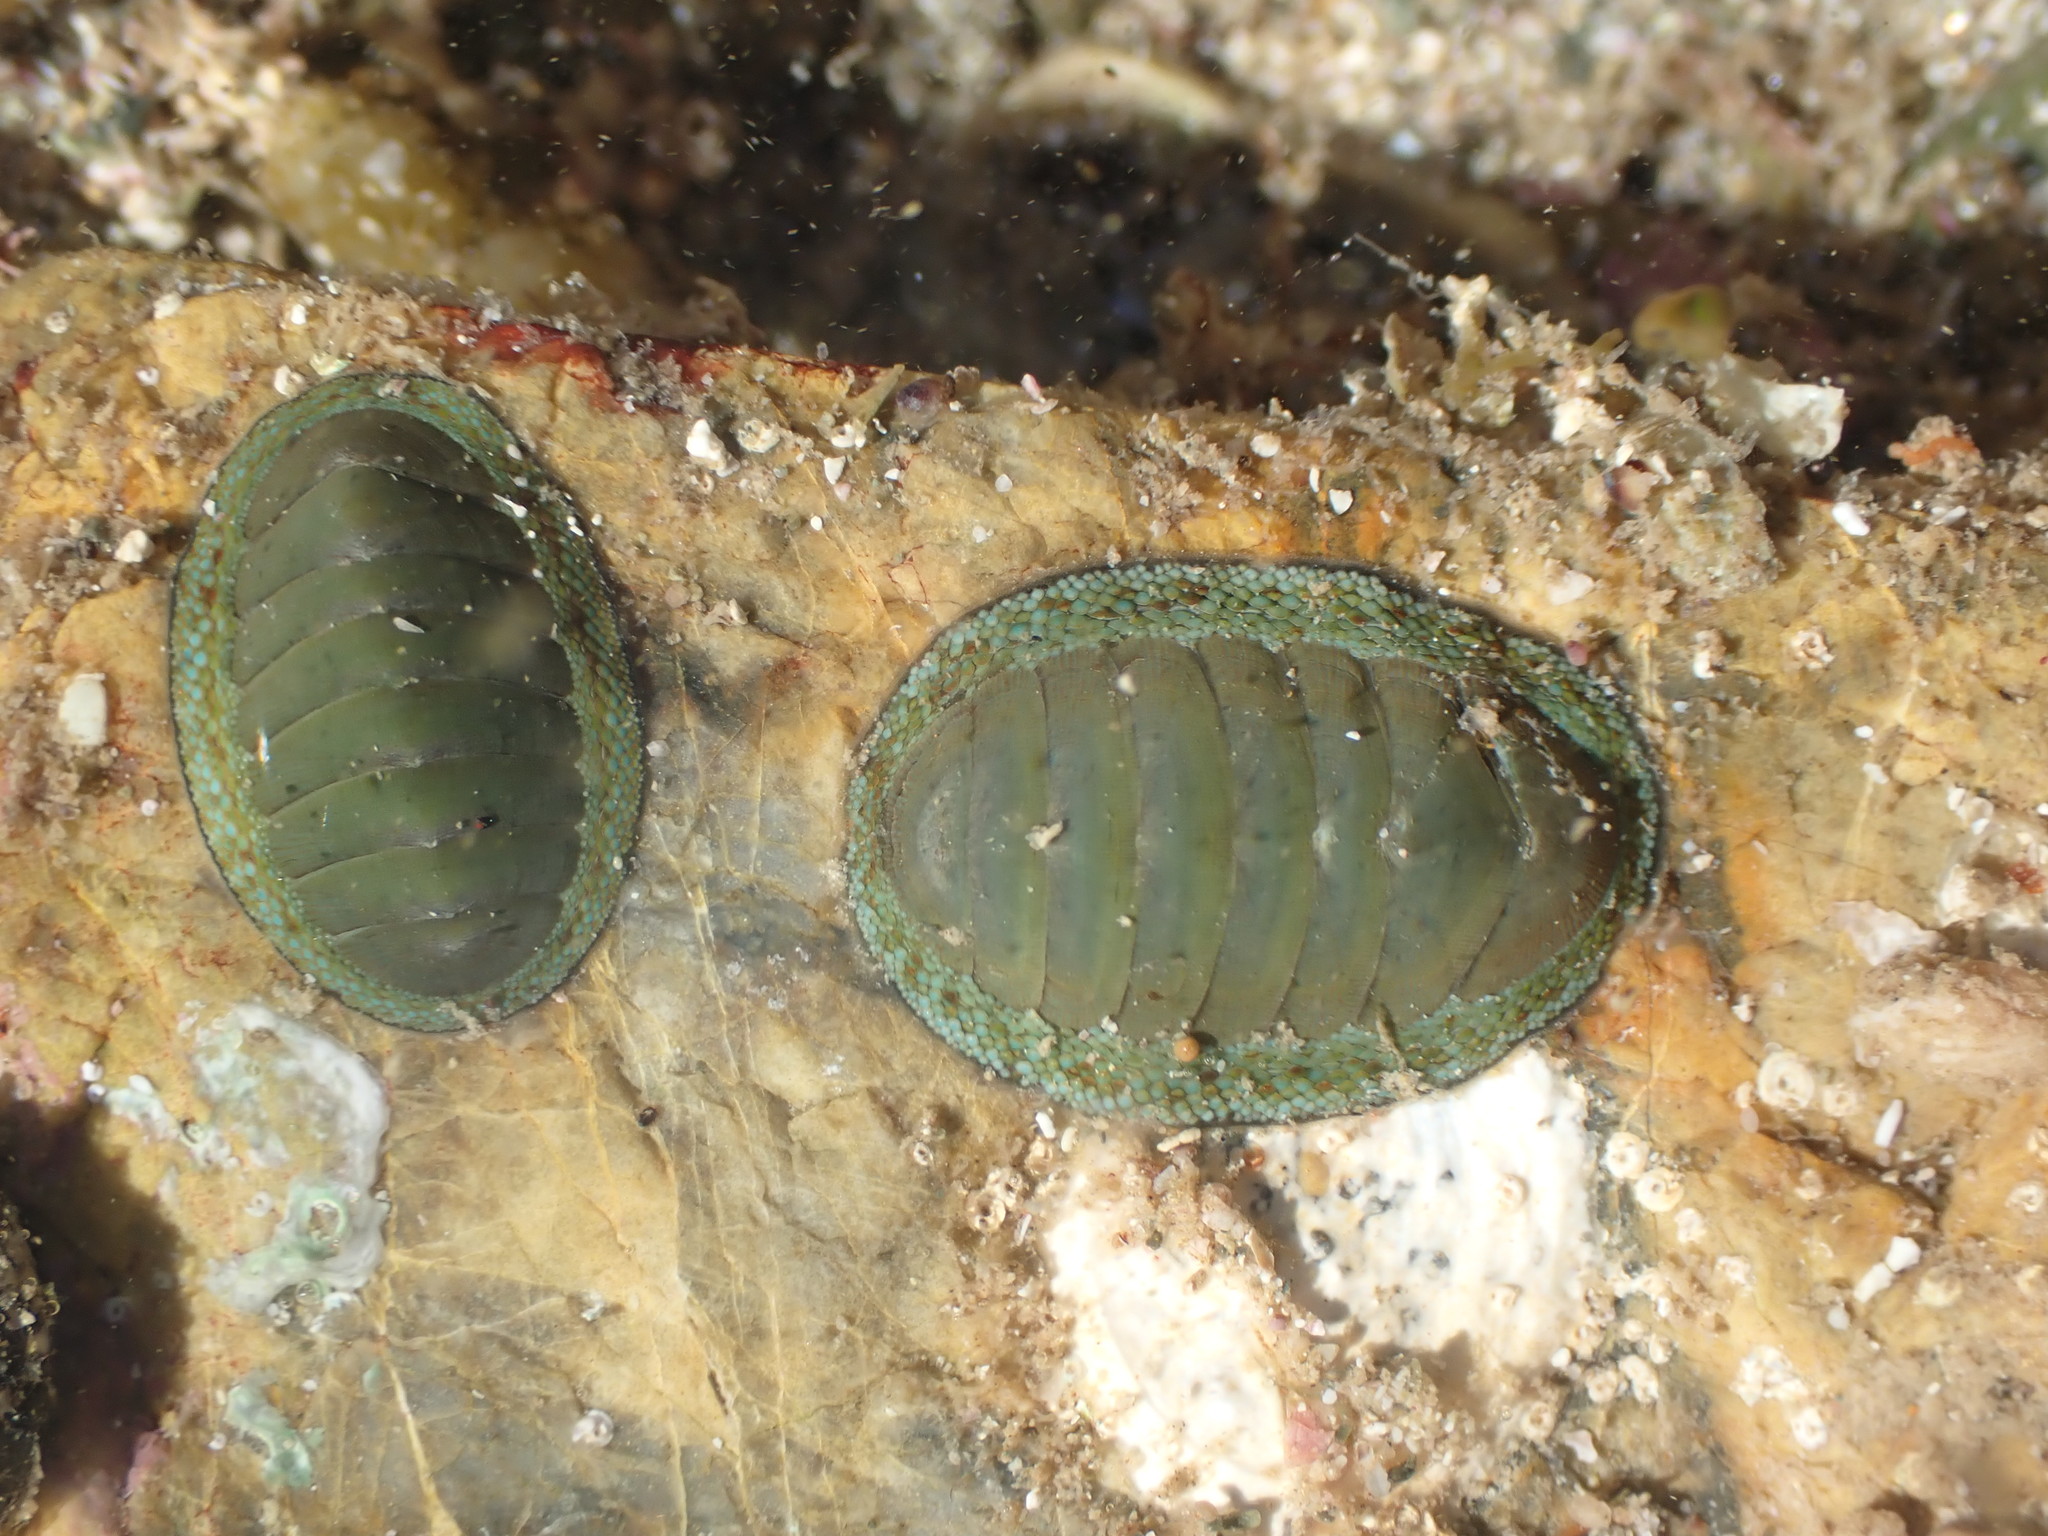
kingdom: Animalia
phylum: Mollusca
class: Polyplacophora
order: Chitonida
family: Chitonidae
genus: Chiton
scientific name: Chiton glaucus
